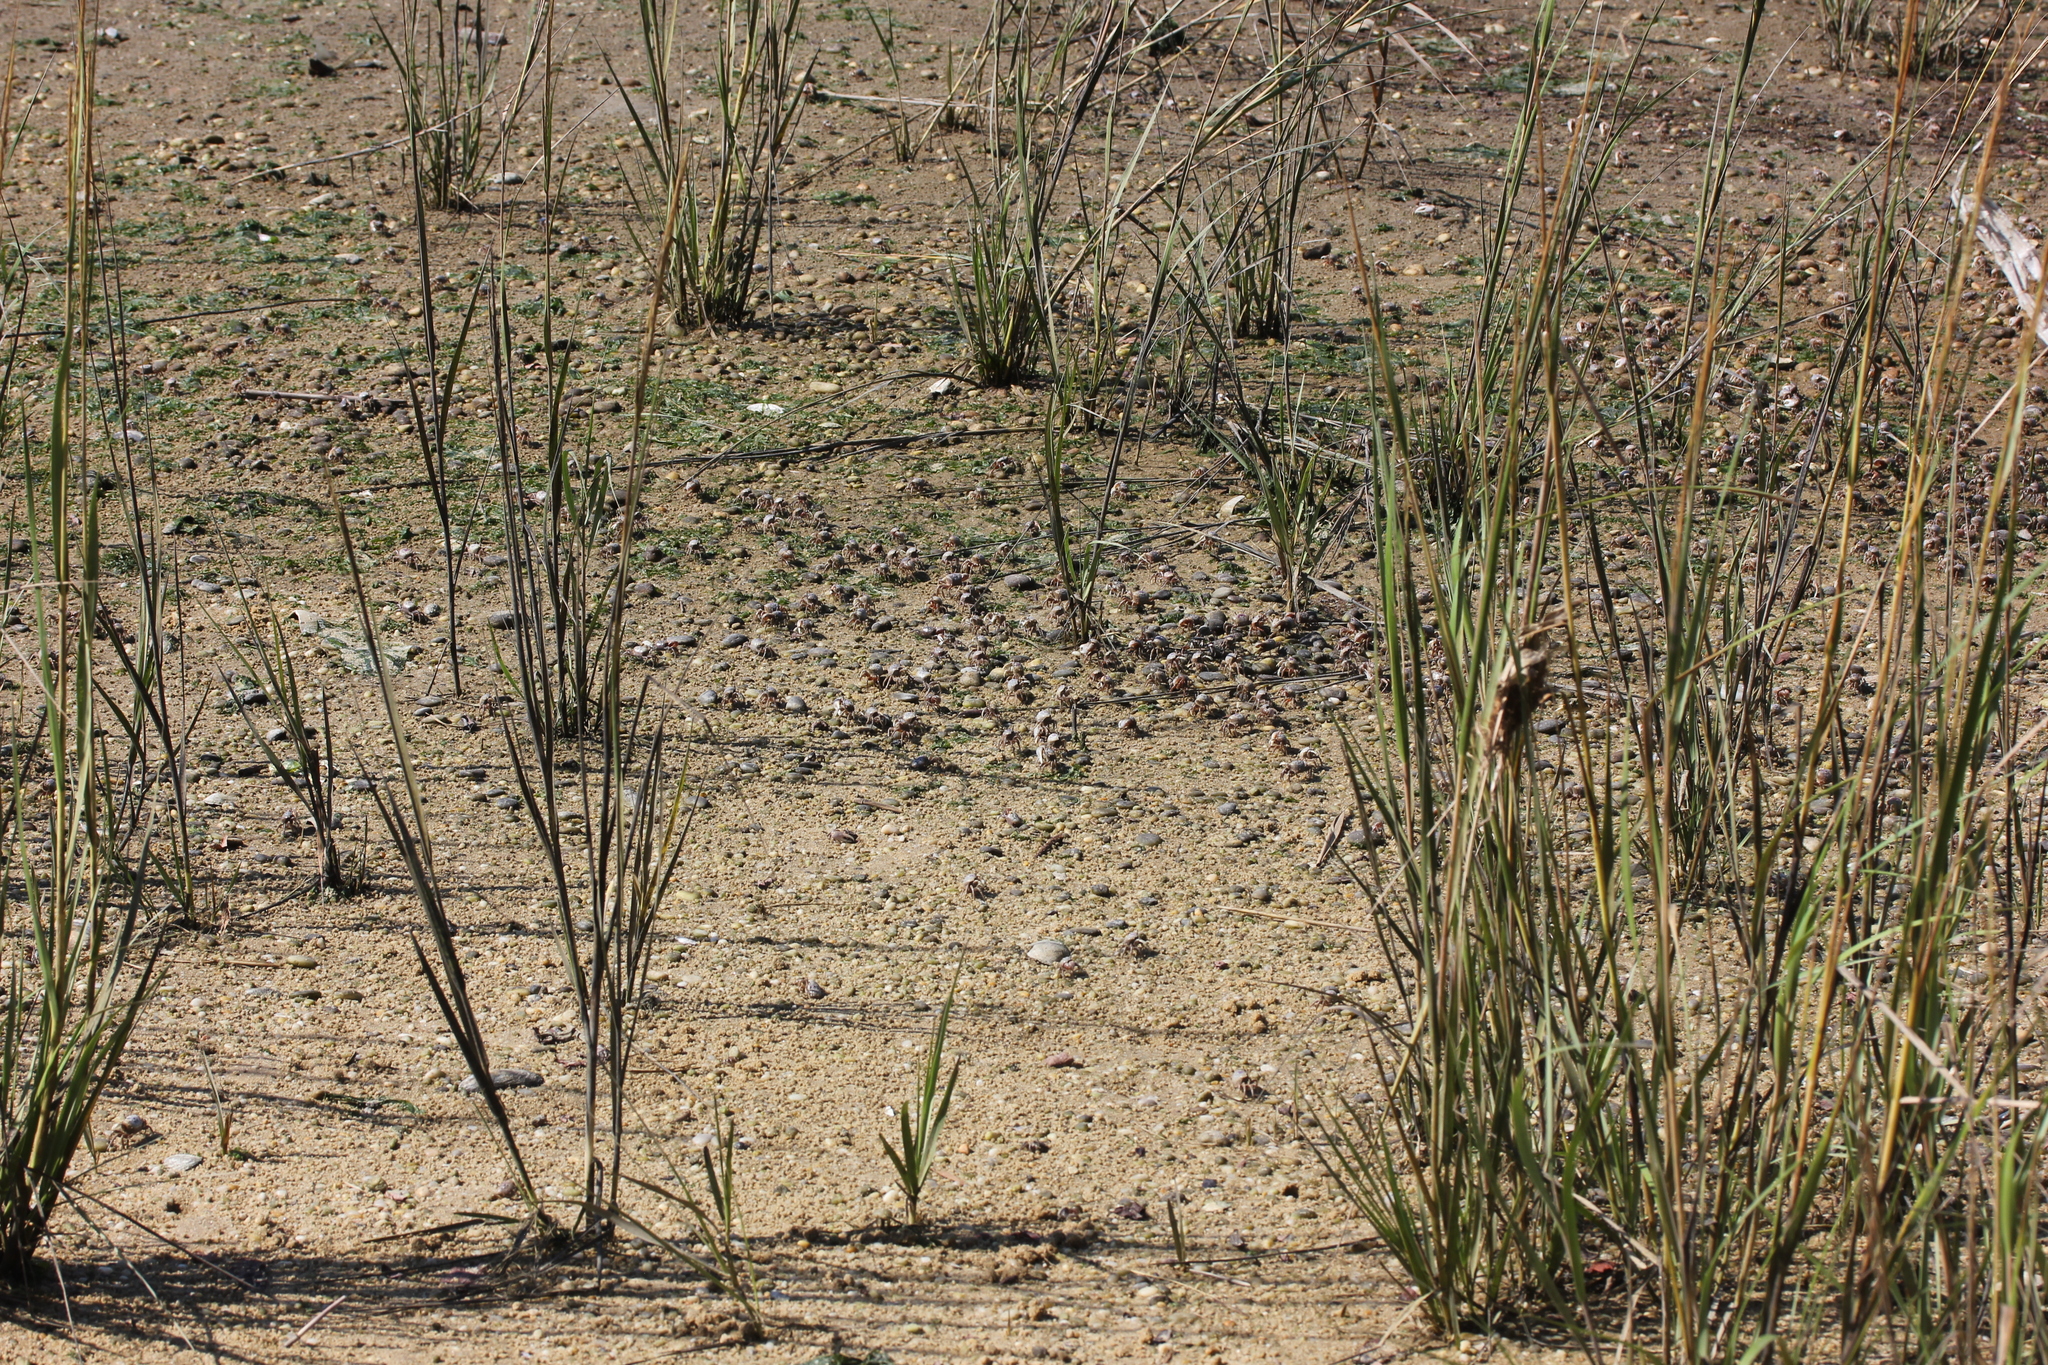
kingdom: Animalia
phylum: Arthropoda
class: Malacostraca
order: Decapoda
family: Ocypodidae
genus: Leptuca
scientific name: Leptuca pugilator
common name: Atlantic sand fiddler crab
